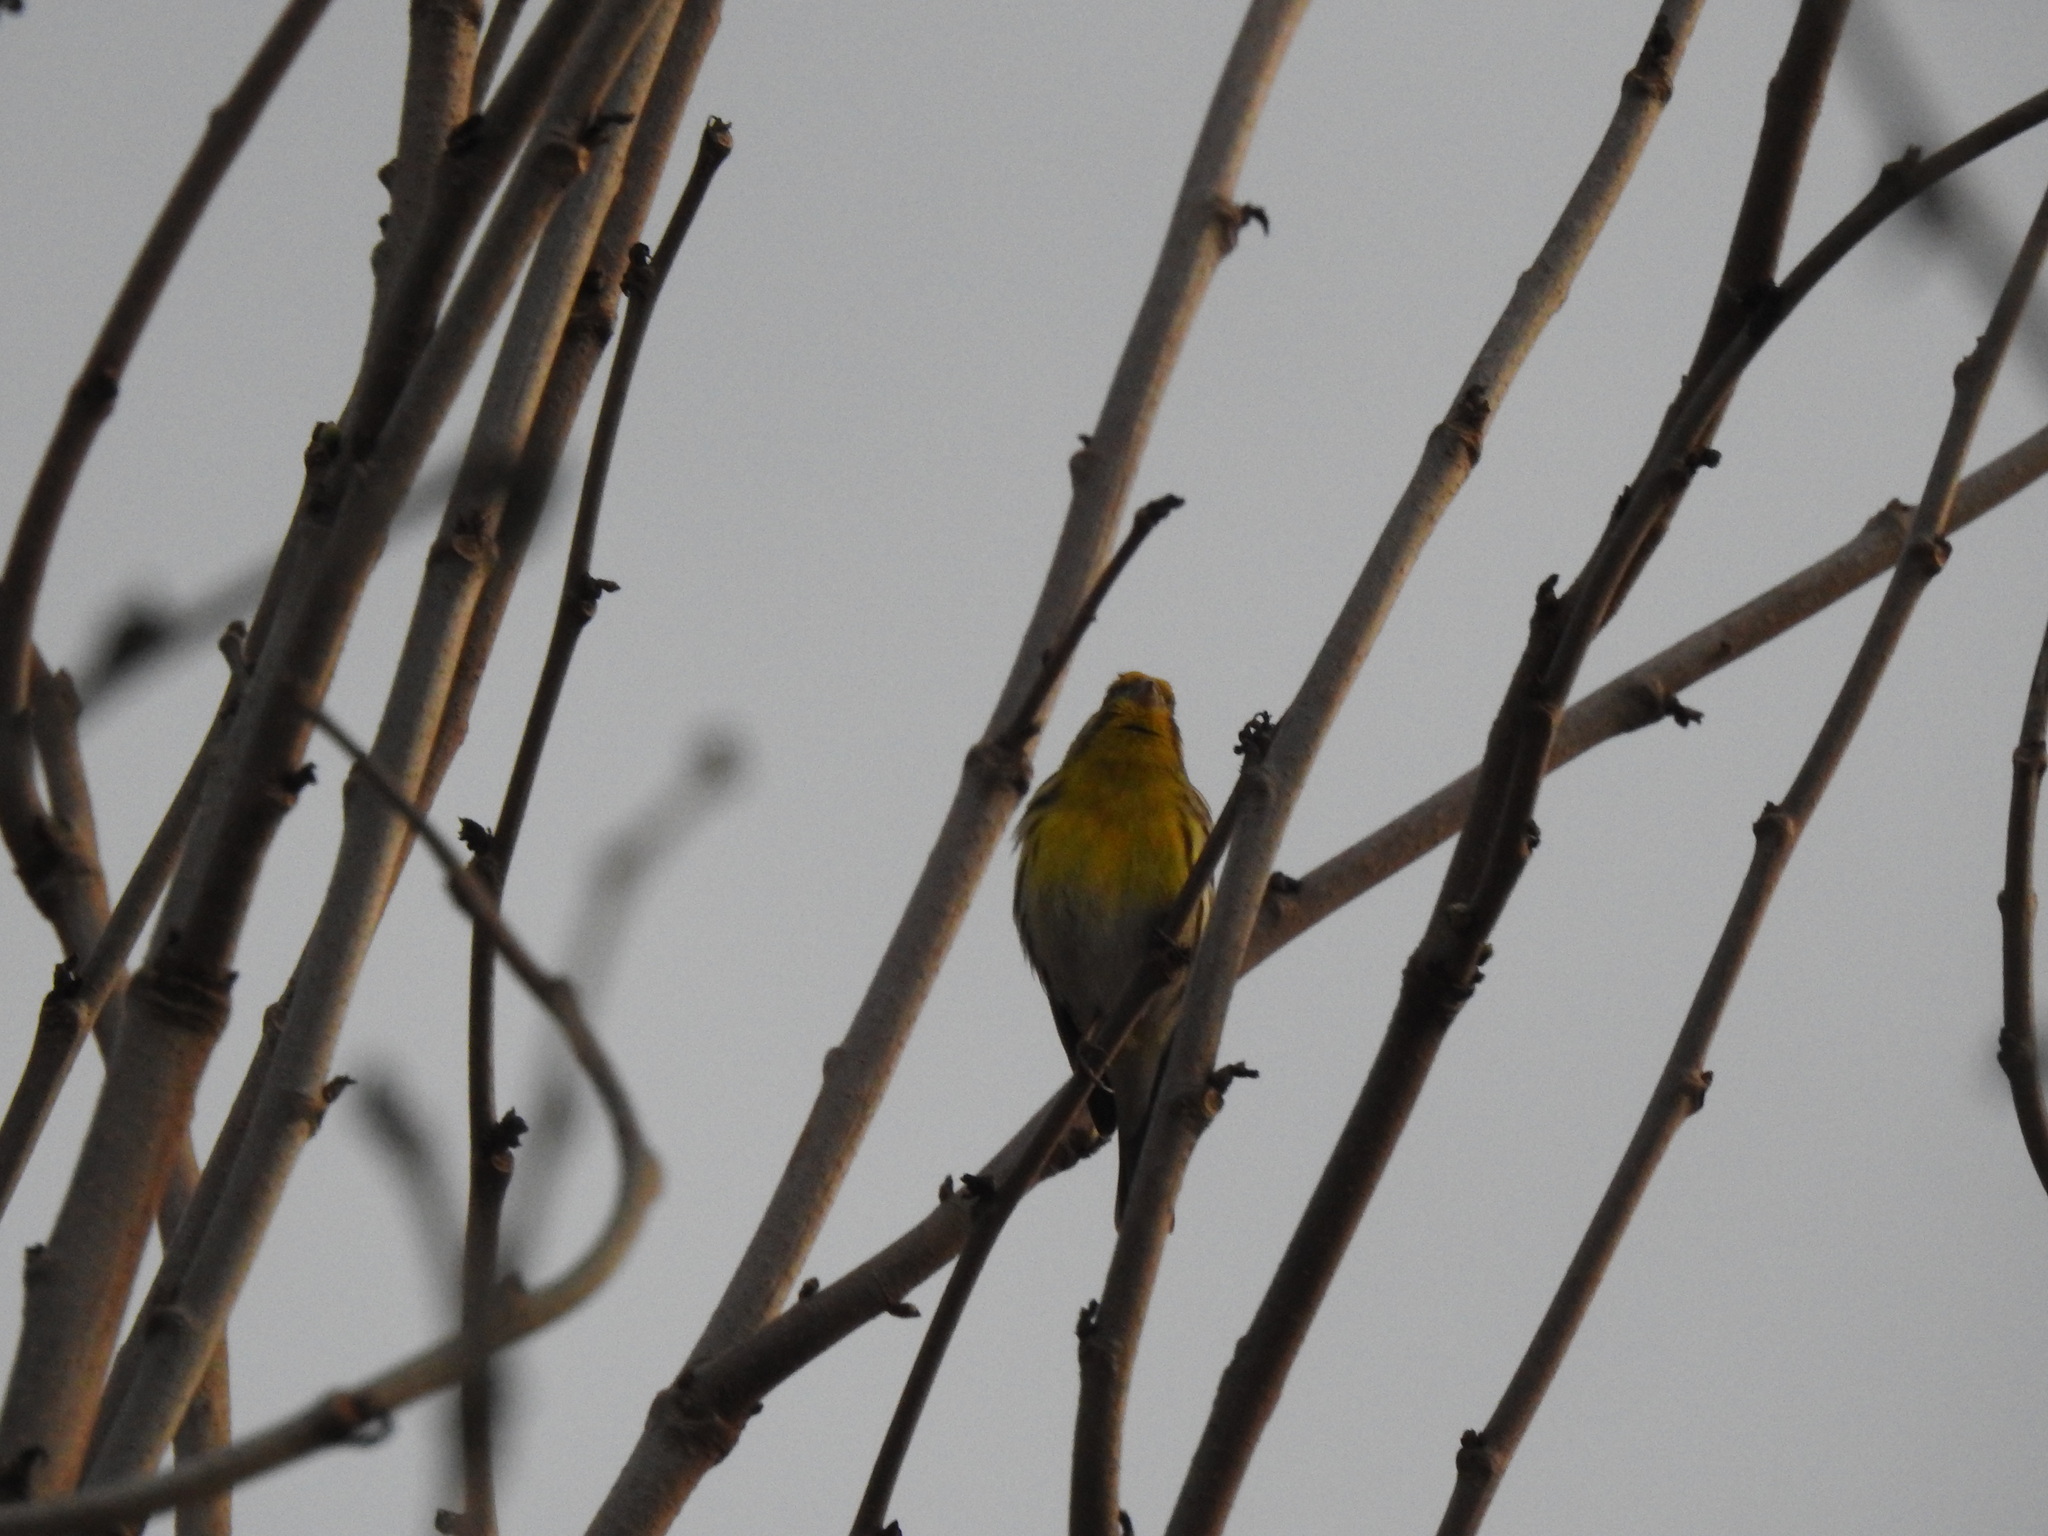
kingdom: Animalia
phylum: Chordata
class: Aves
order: Passeriformes
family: Fringillidae
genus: Serinus
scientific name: Serinus serinus
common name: European serin
